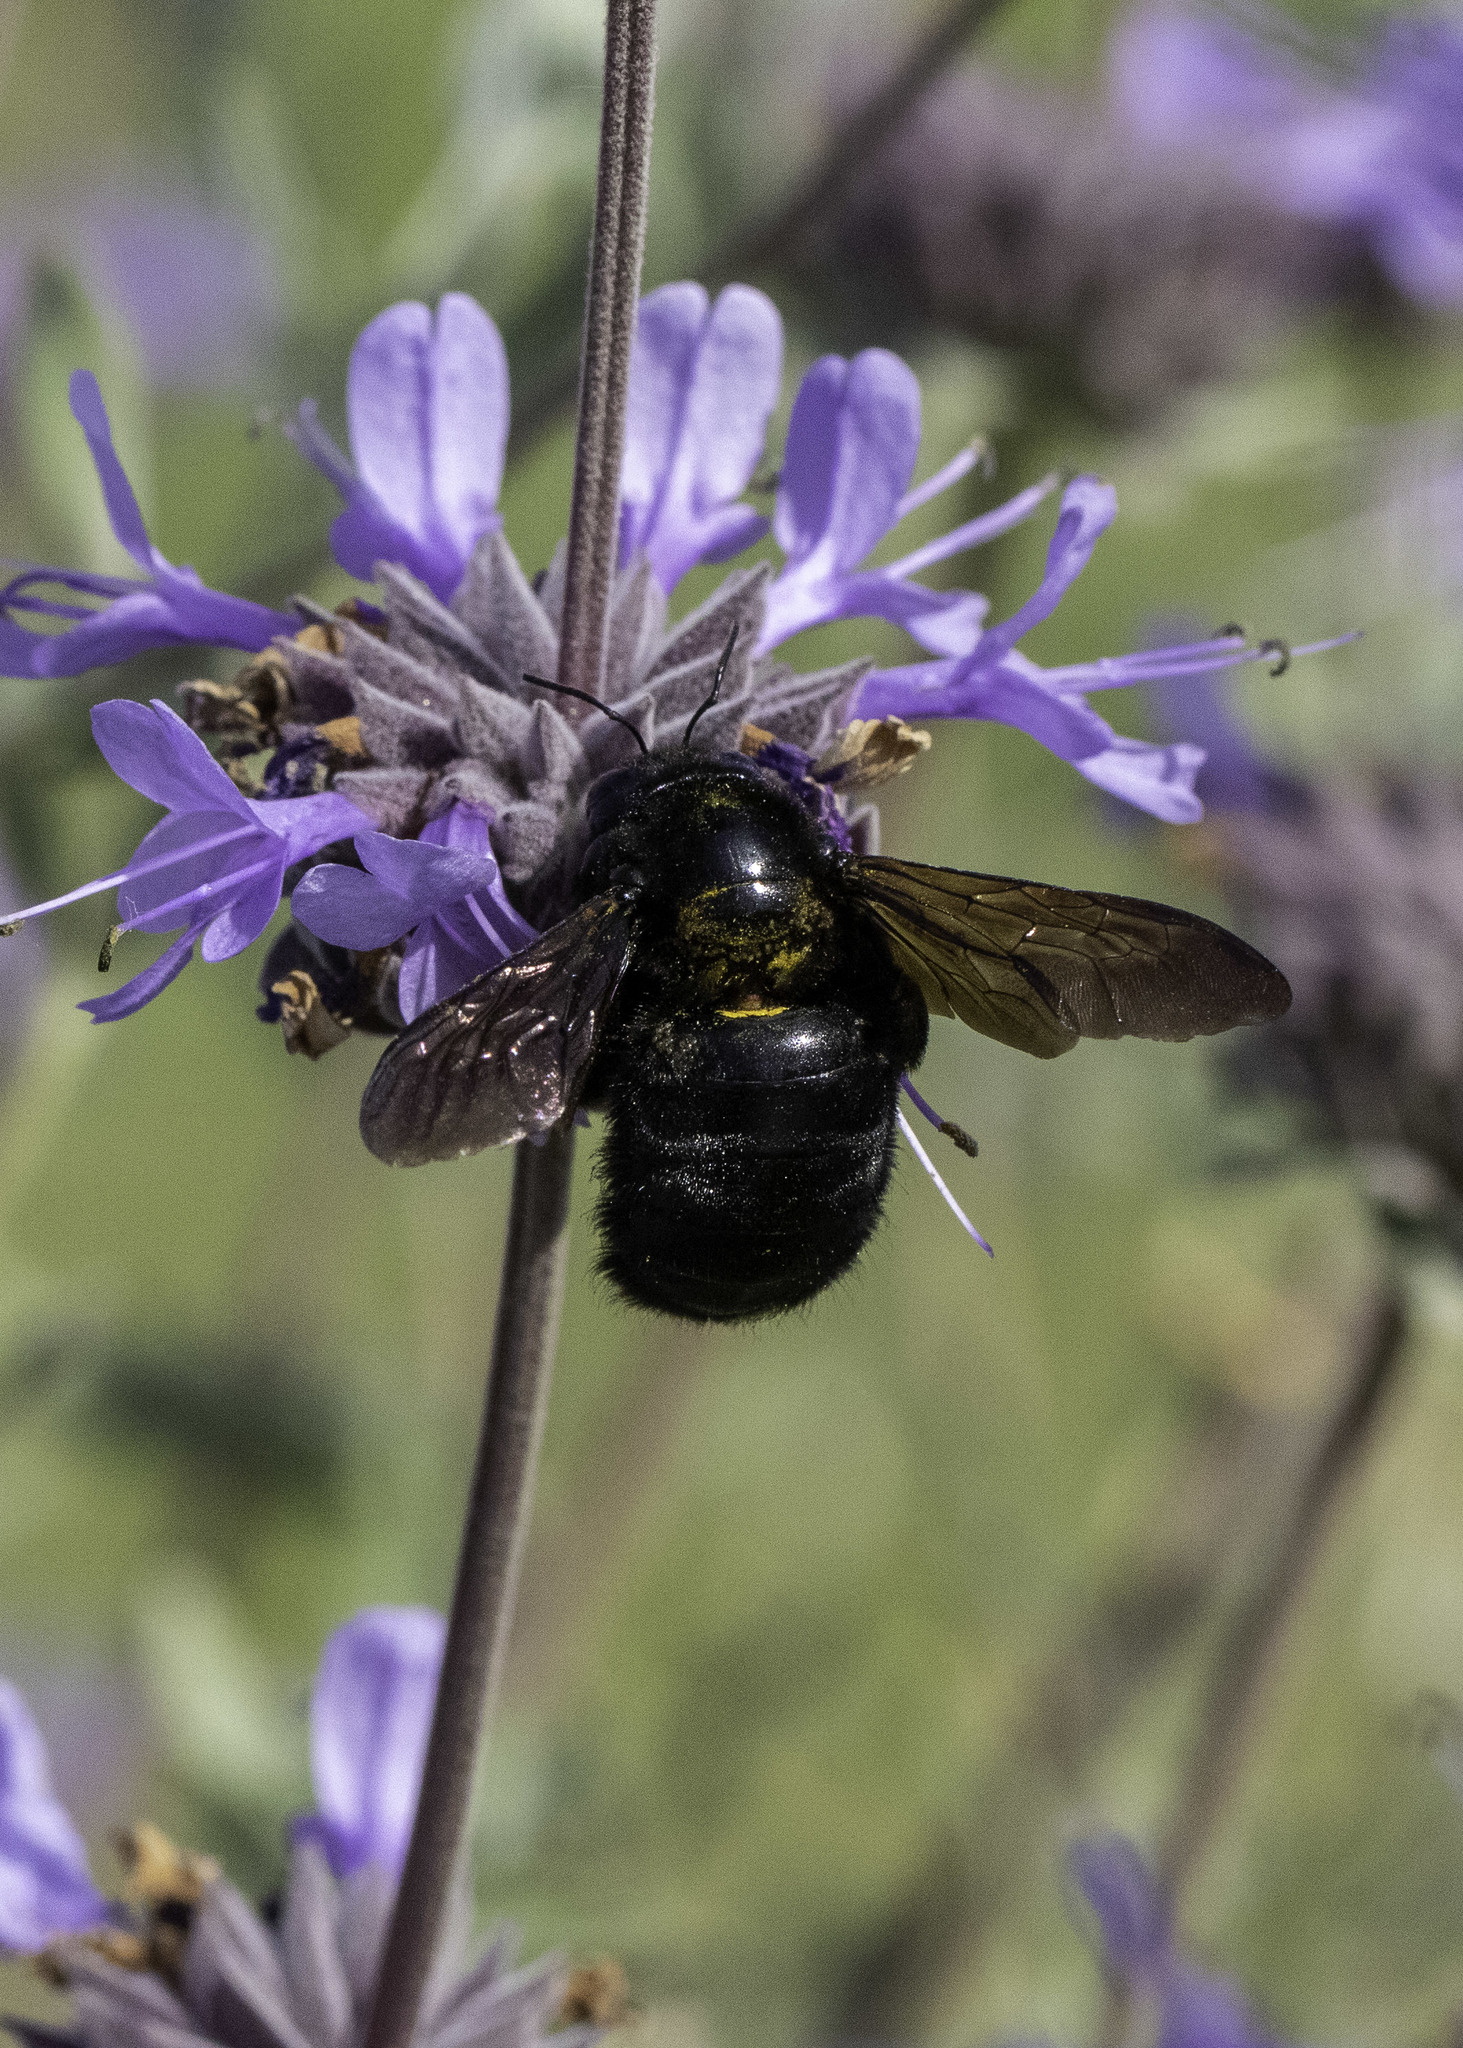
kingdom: Animalia
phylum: Arthropoda
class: Insecta
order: Hymenoptera
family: Apidae
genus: Xylocopa
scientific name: Xylocopa sonorina
